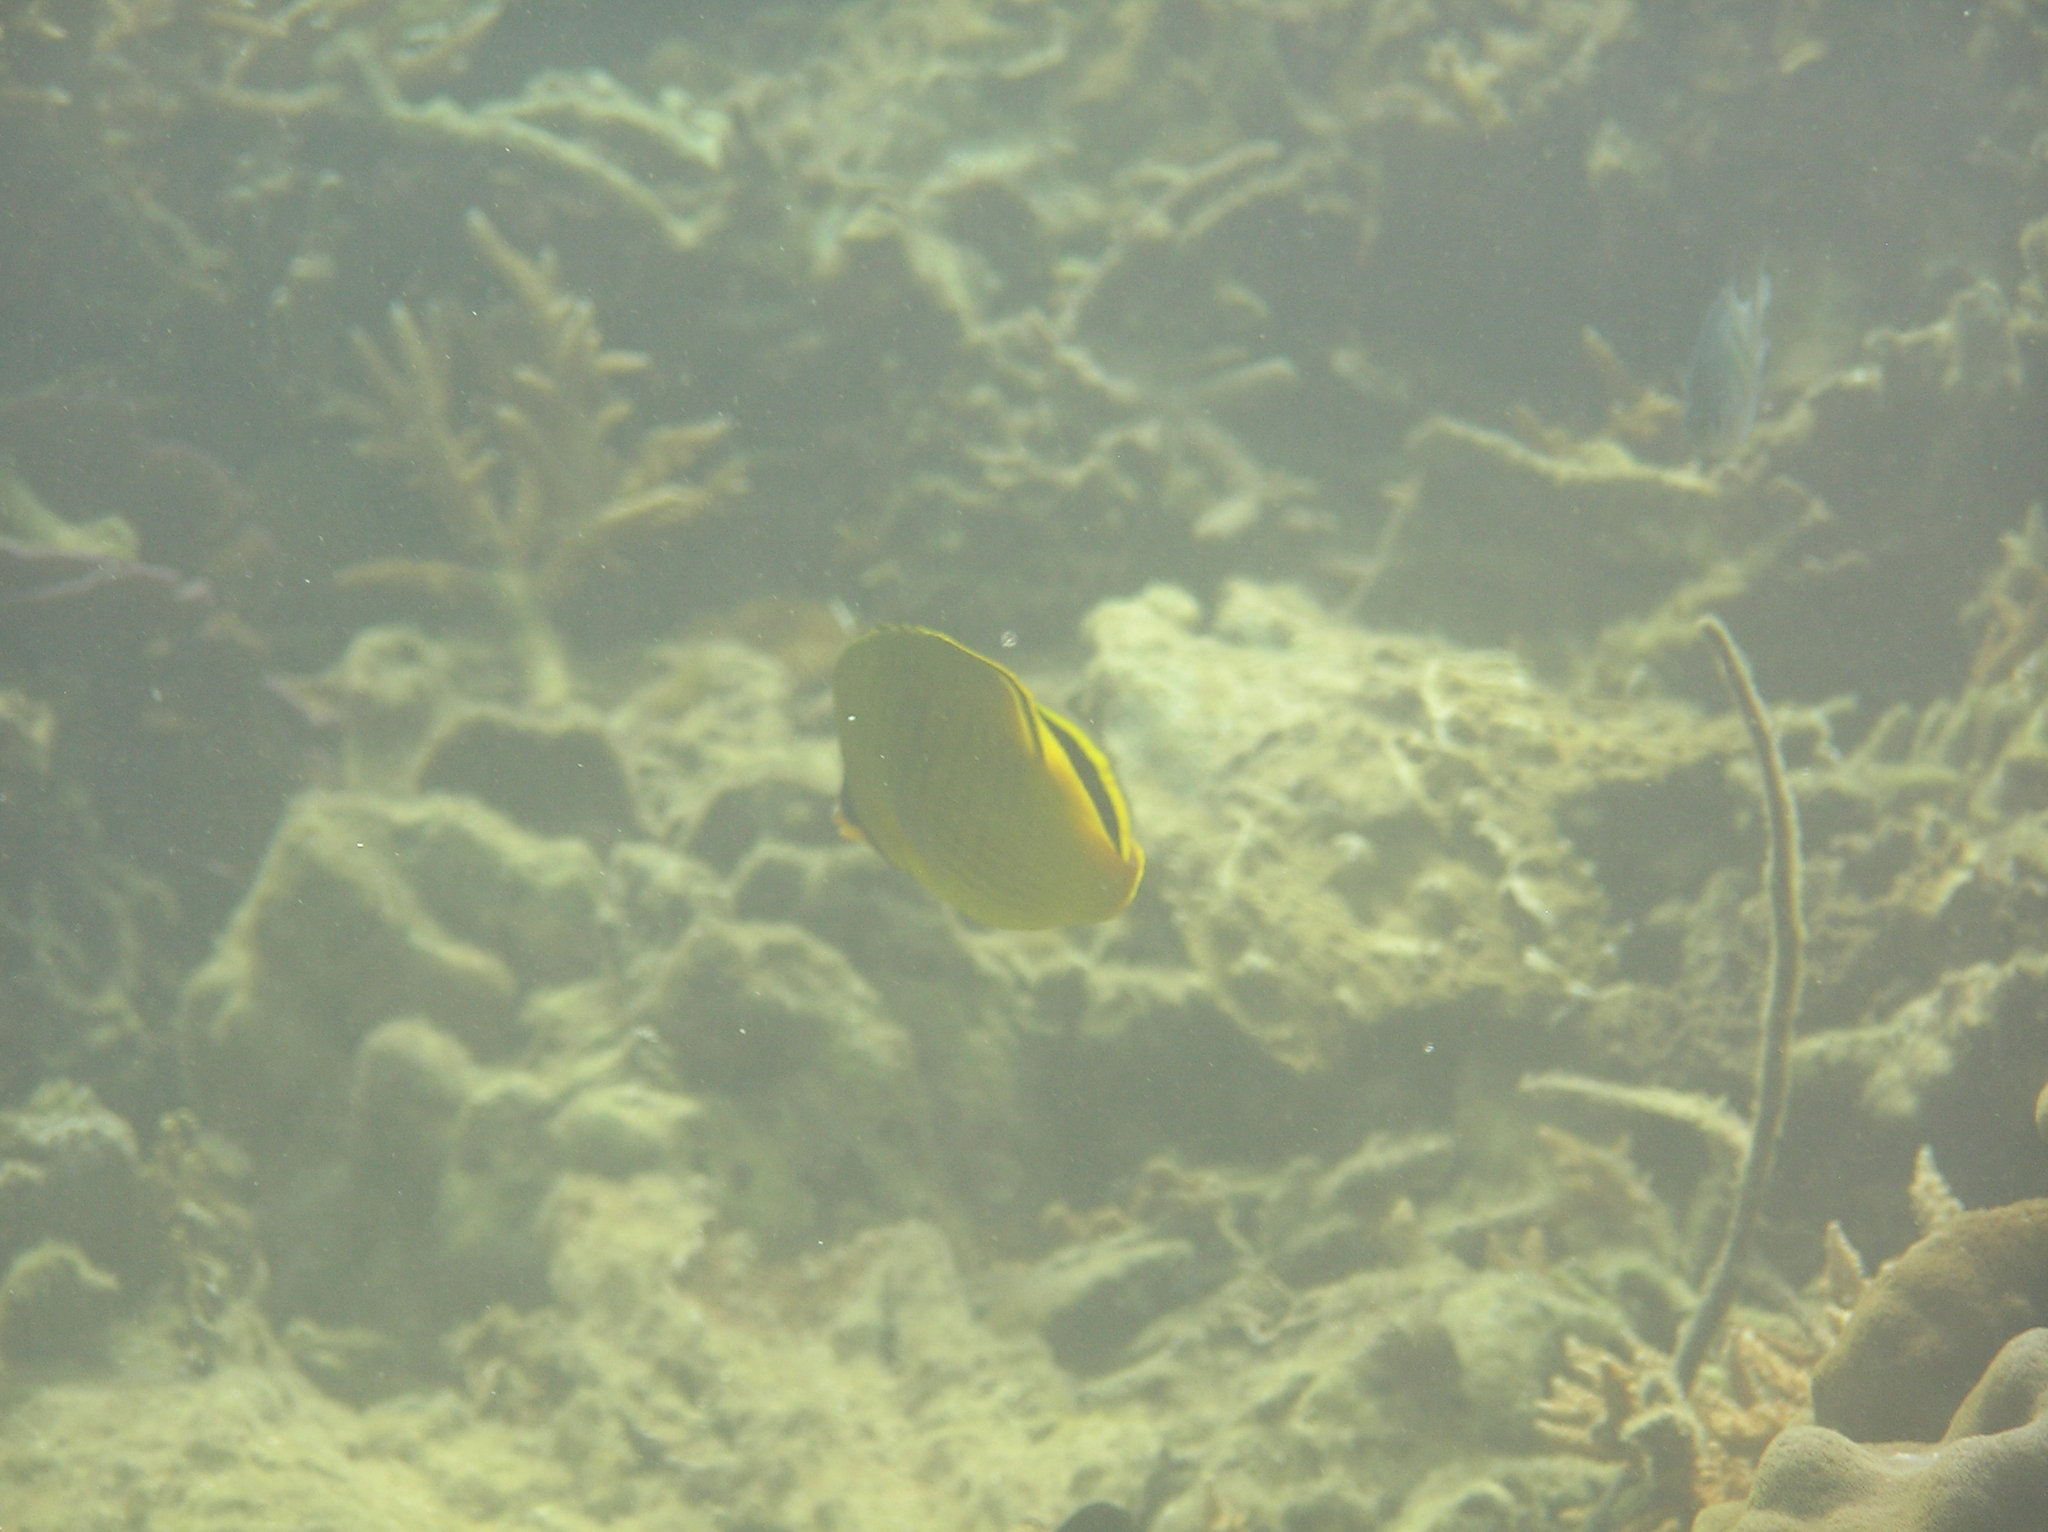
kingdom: Animalia
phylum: Chordata
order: Perciformes
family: Chaetodontidae
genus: Chaetodon
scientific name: Chaetodon rafflesii
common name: Latticed butterflyfish
